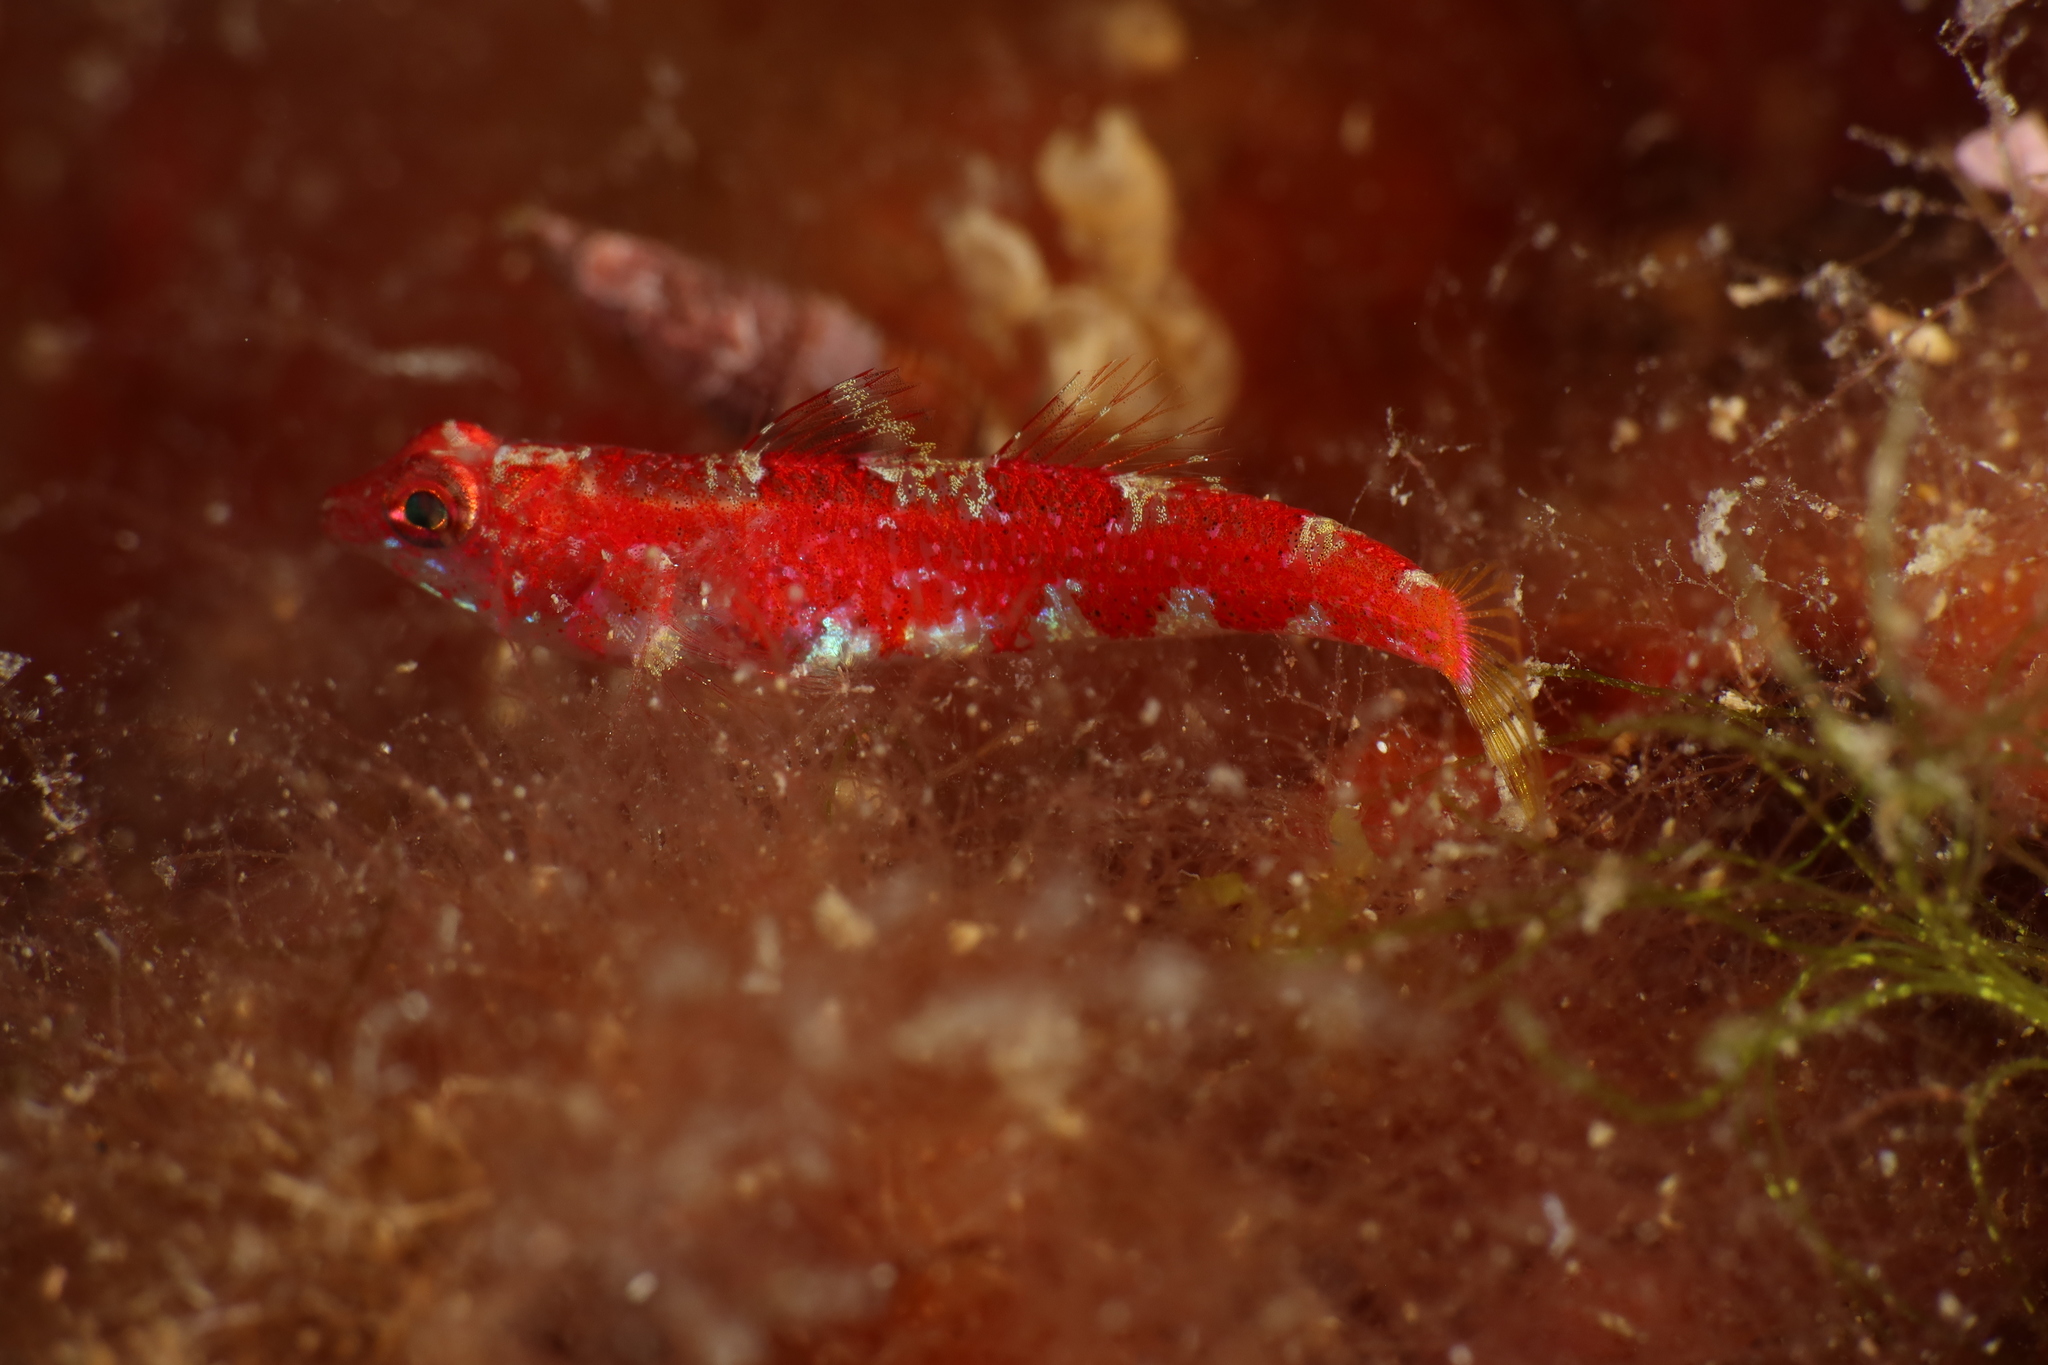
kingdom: Animalia
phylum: Chordata
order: Perciformes
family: Gobiidae
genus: Speleogobius
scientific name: Speleogobius trigloides
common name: Grotto goby
